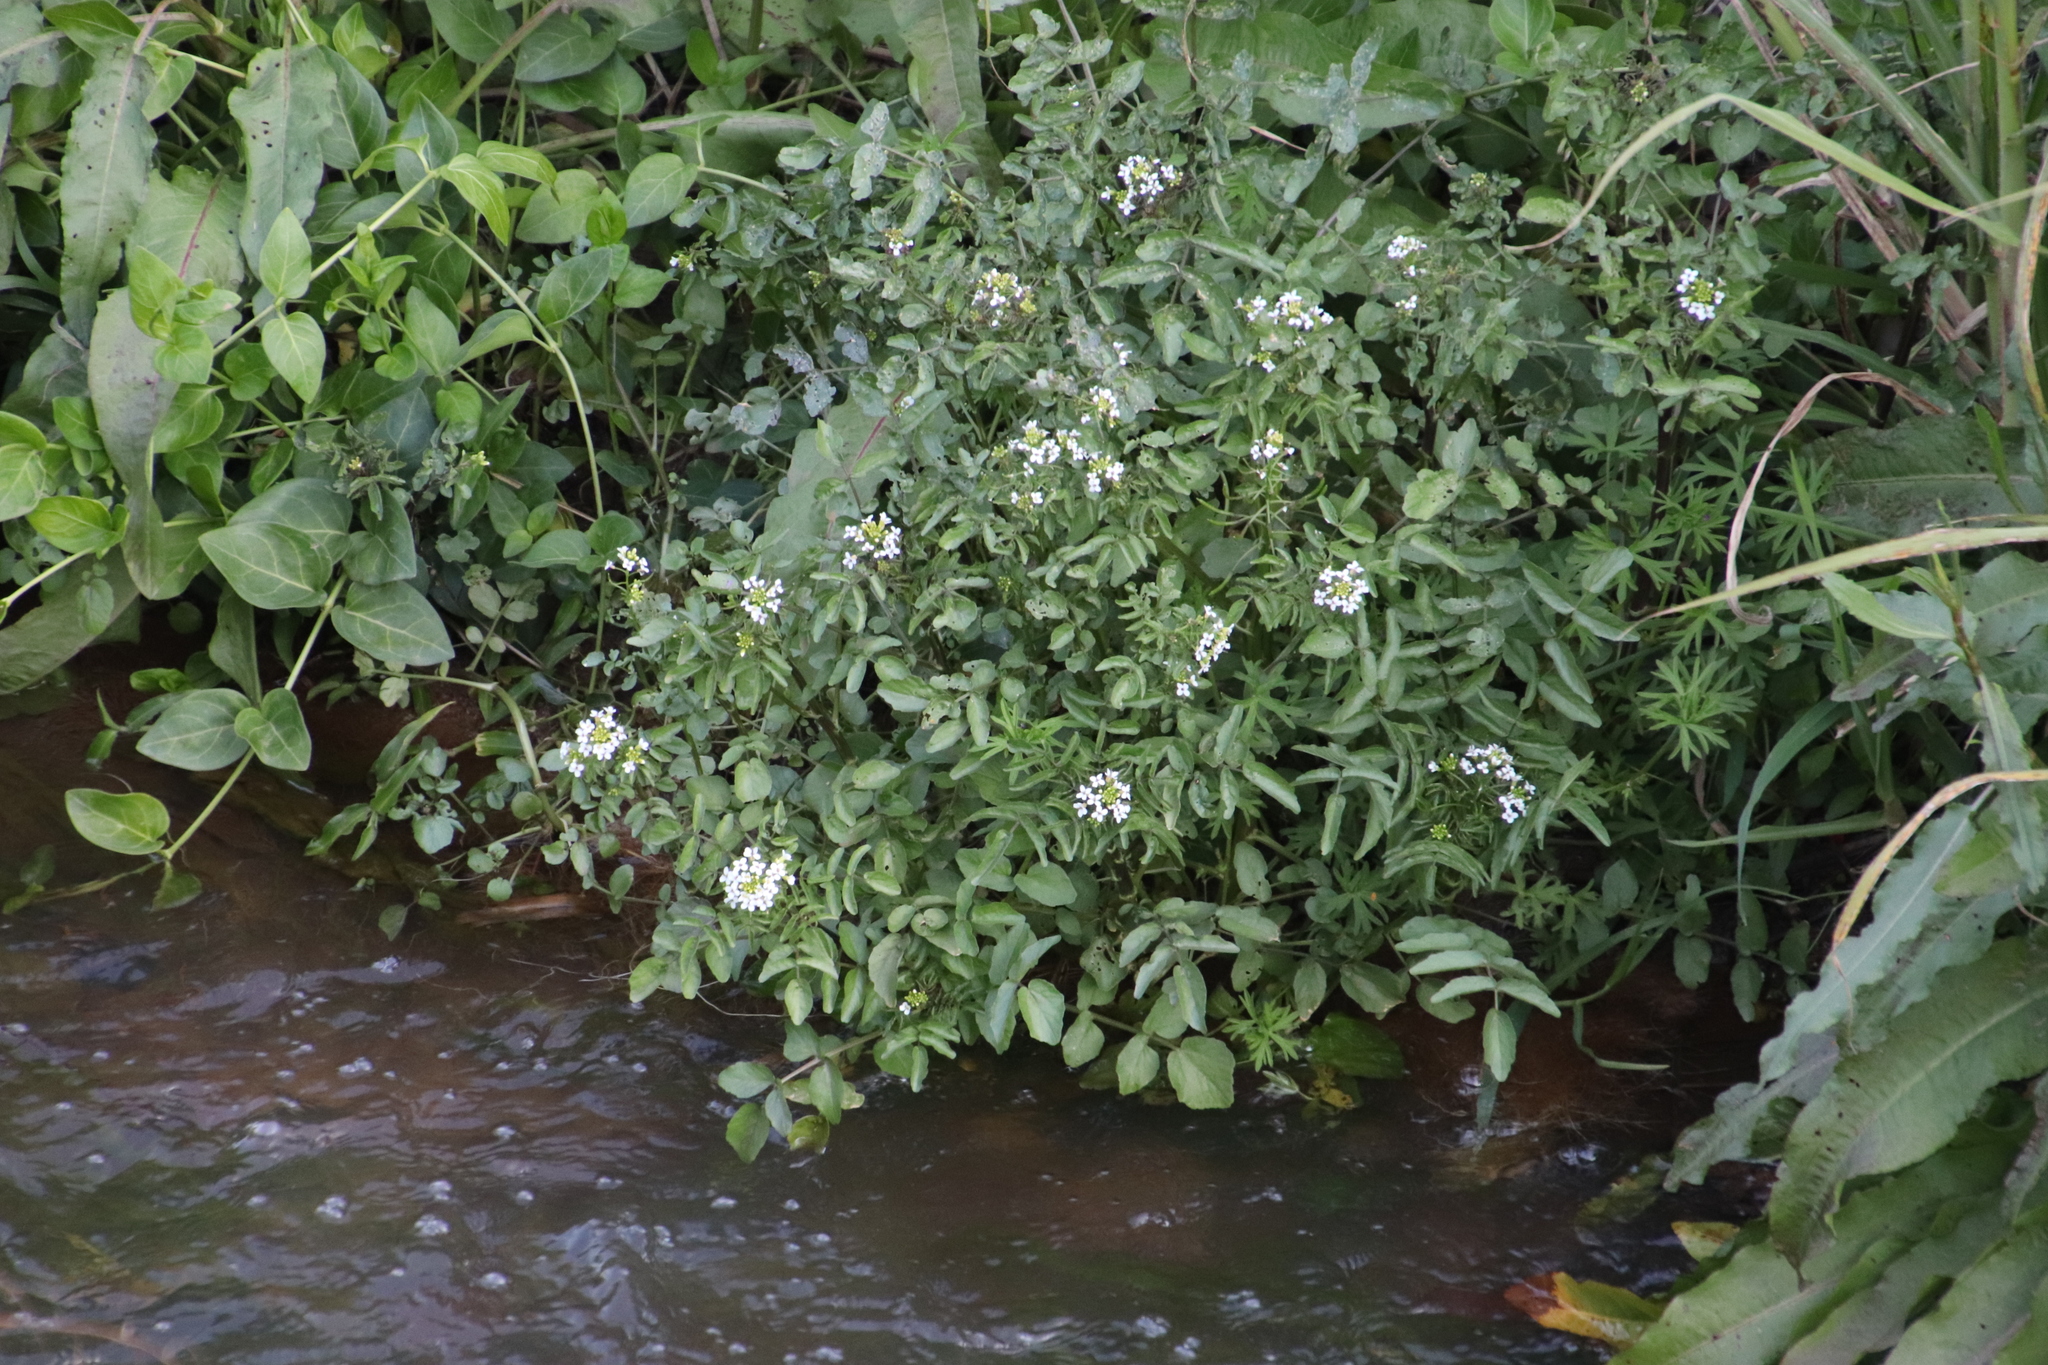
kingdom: Plantae
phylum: Tracheophyta
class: Magnoliopsida
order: Brassicales
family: Brassicaceae
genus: Nasturtium
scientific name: Nasturtium officinale
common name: Watercress
